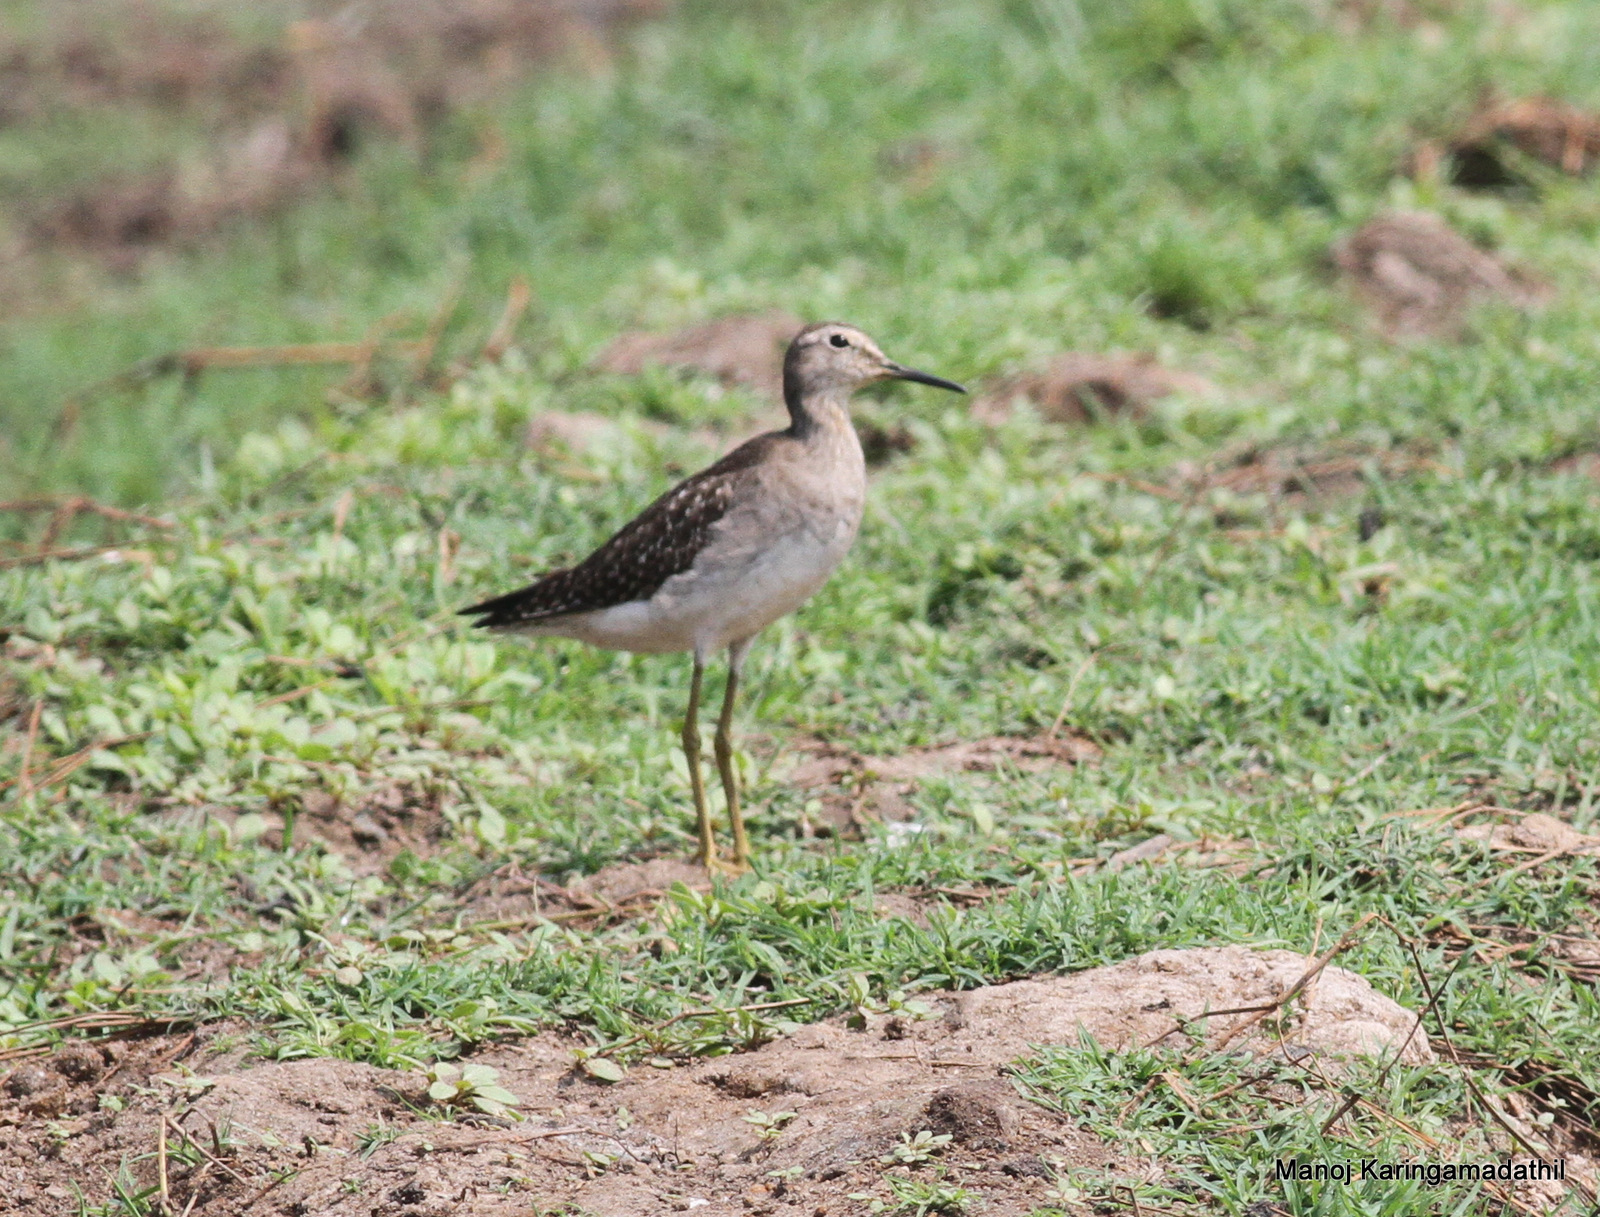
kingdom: Animalia
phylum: Chordata
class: Aves
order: Charadriiformes
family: Scolopacidae
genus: Tringa
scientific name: Tringa glareola
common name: Wood sandpiper
